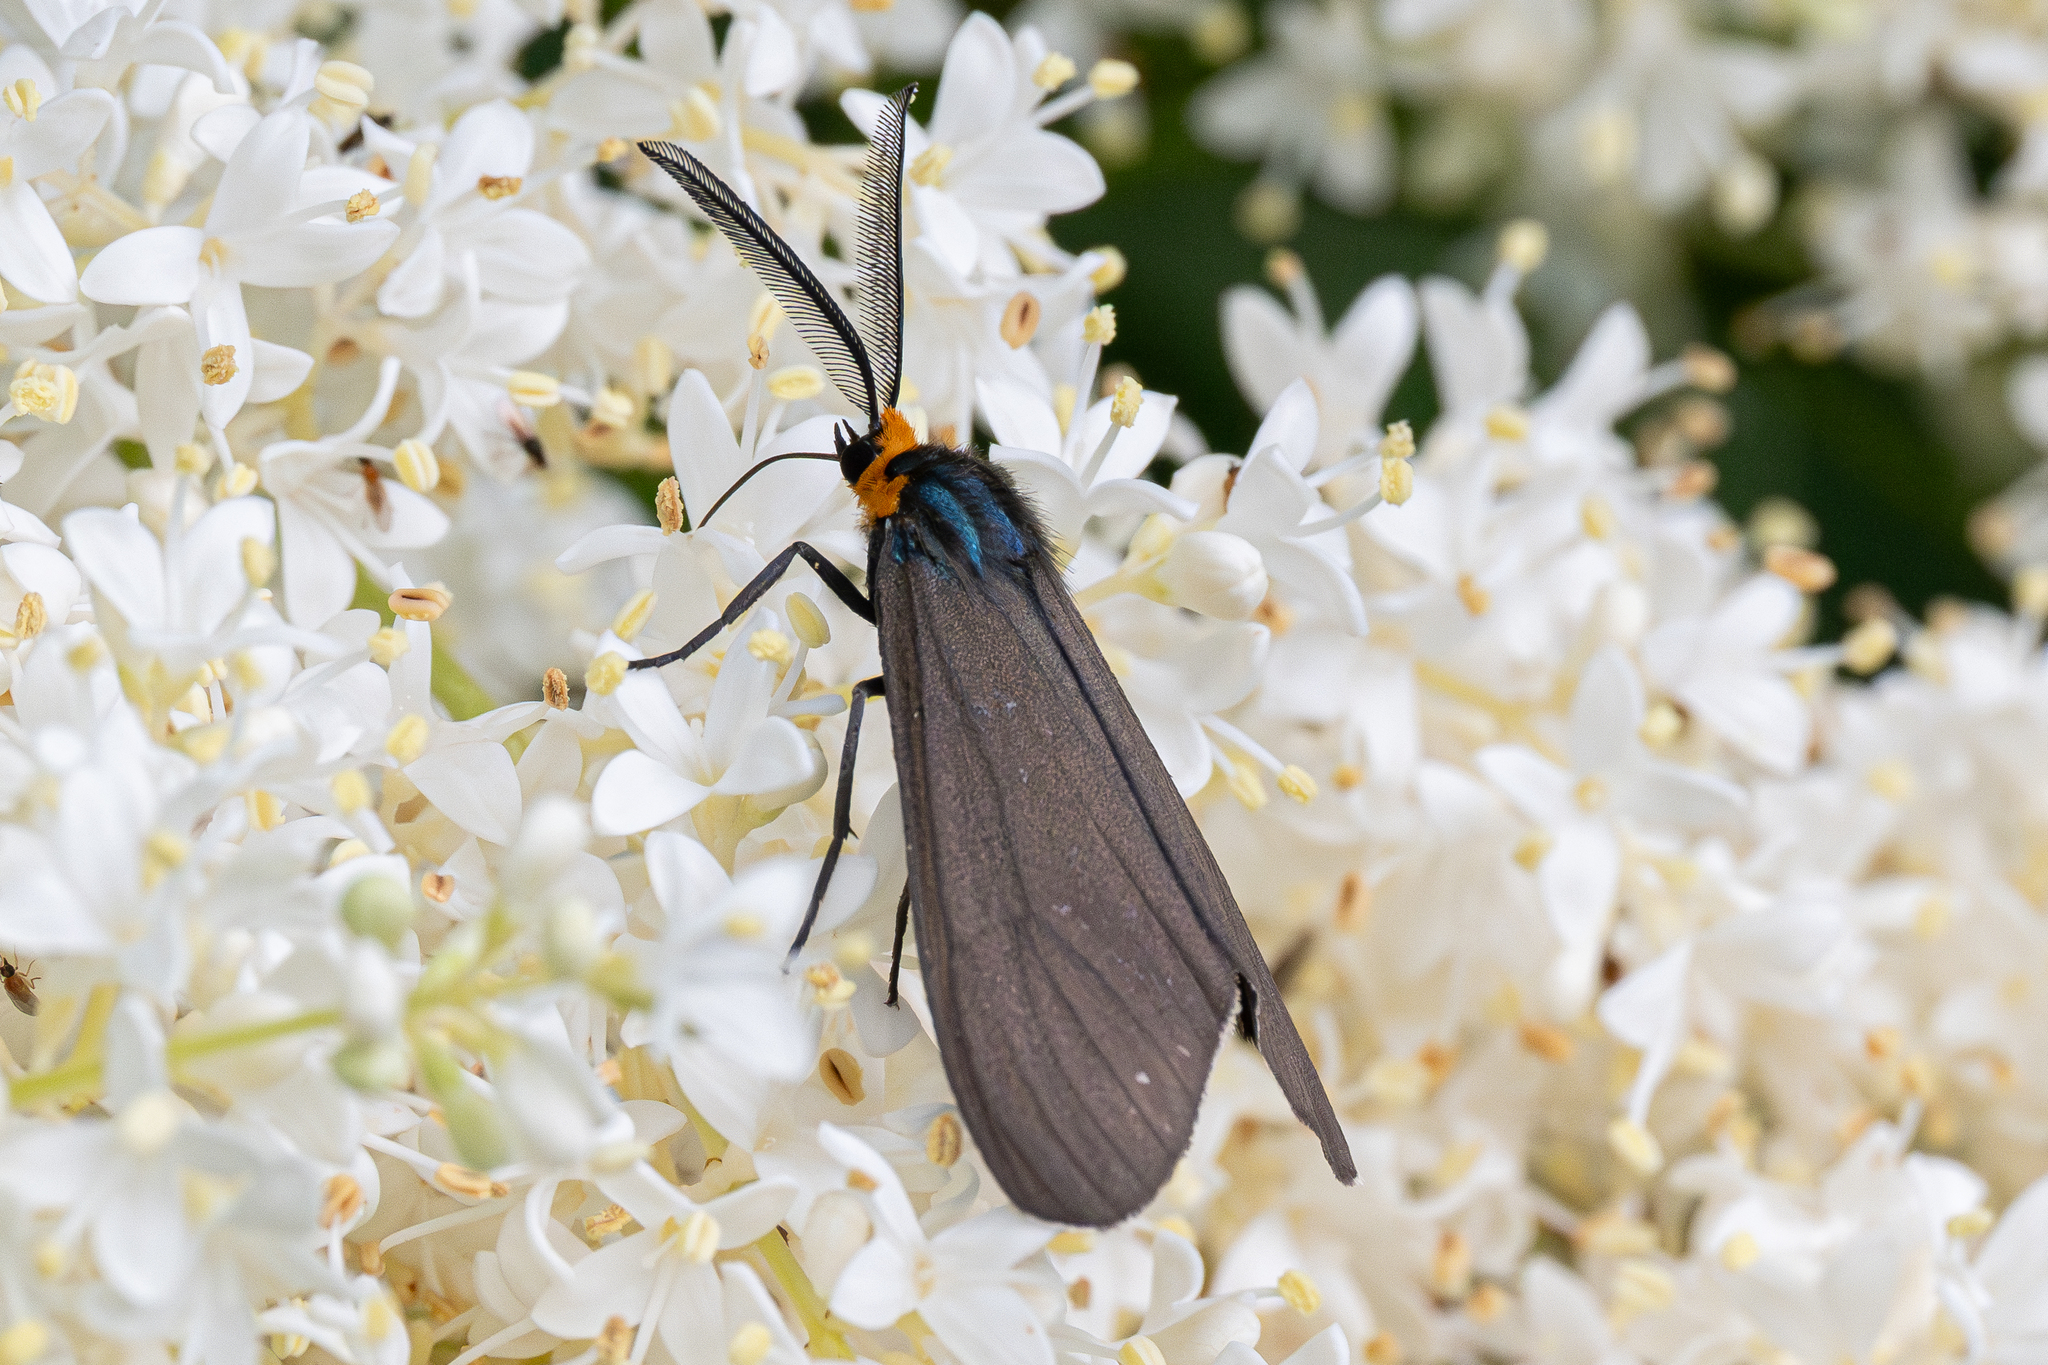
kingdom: Animalia
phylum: Arthropoda
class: Insecta
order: Lepidoptera
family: Erebidae
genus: Ctenucha
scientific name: Ctenucha virginica
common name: Virginia ctenucha moth
